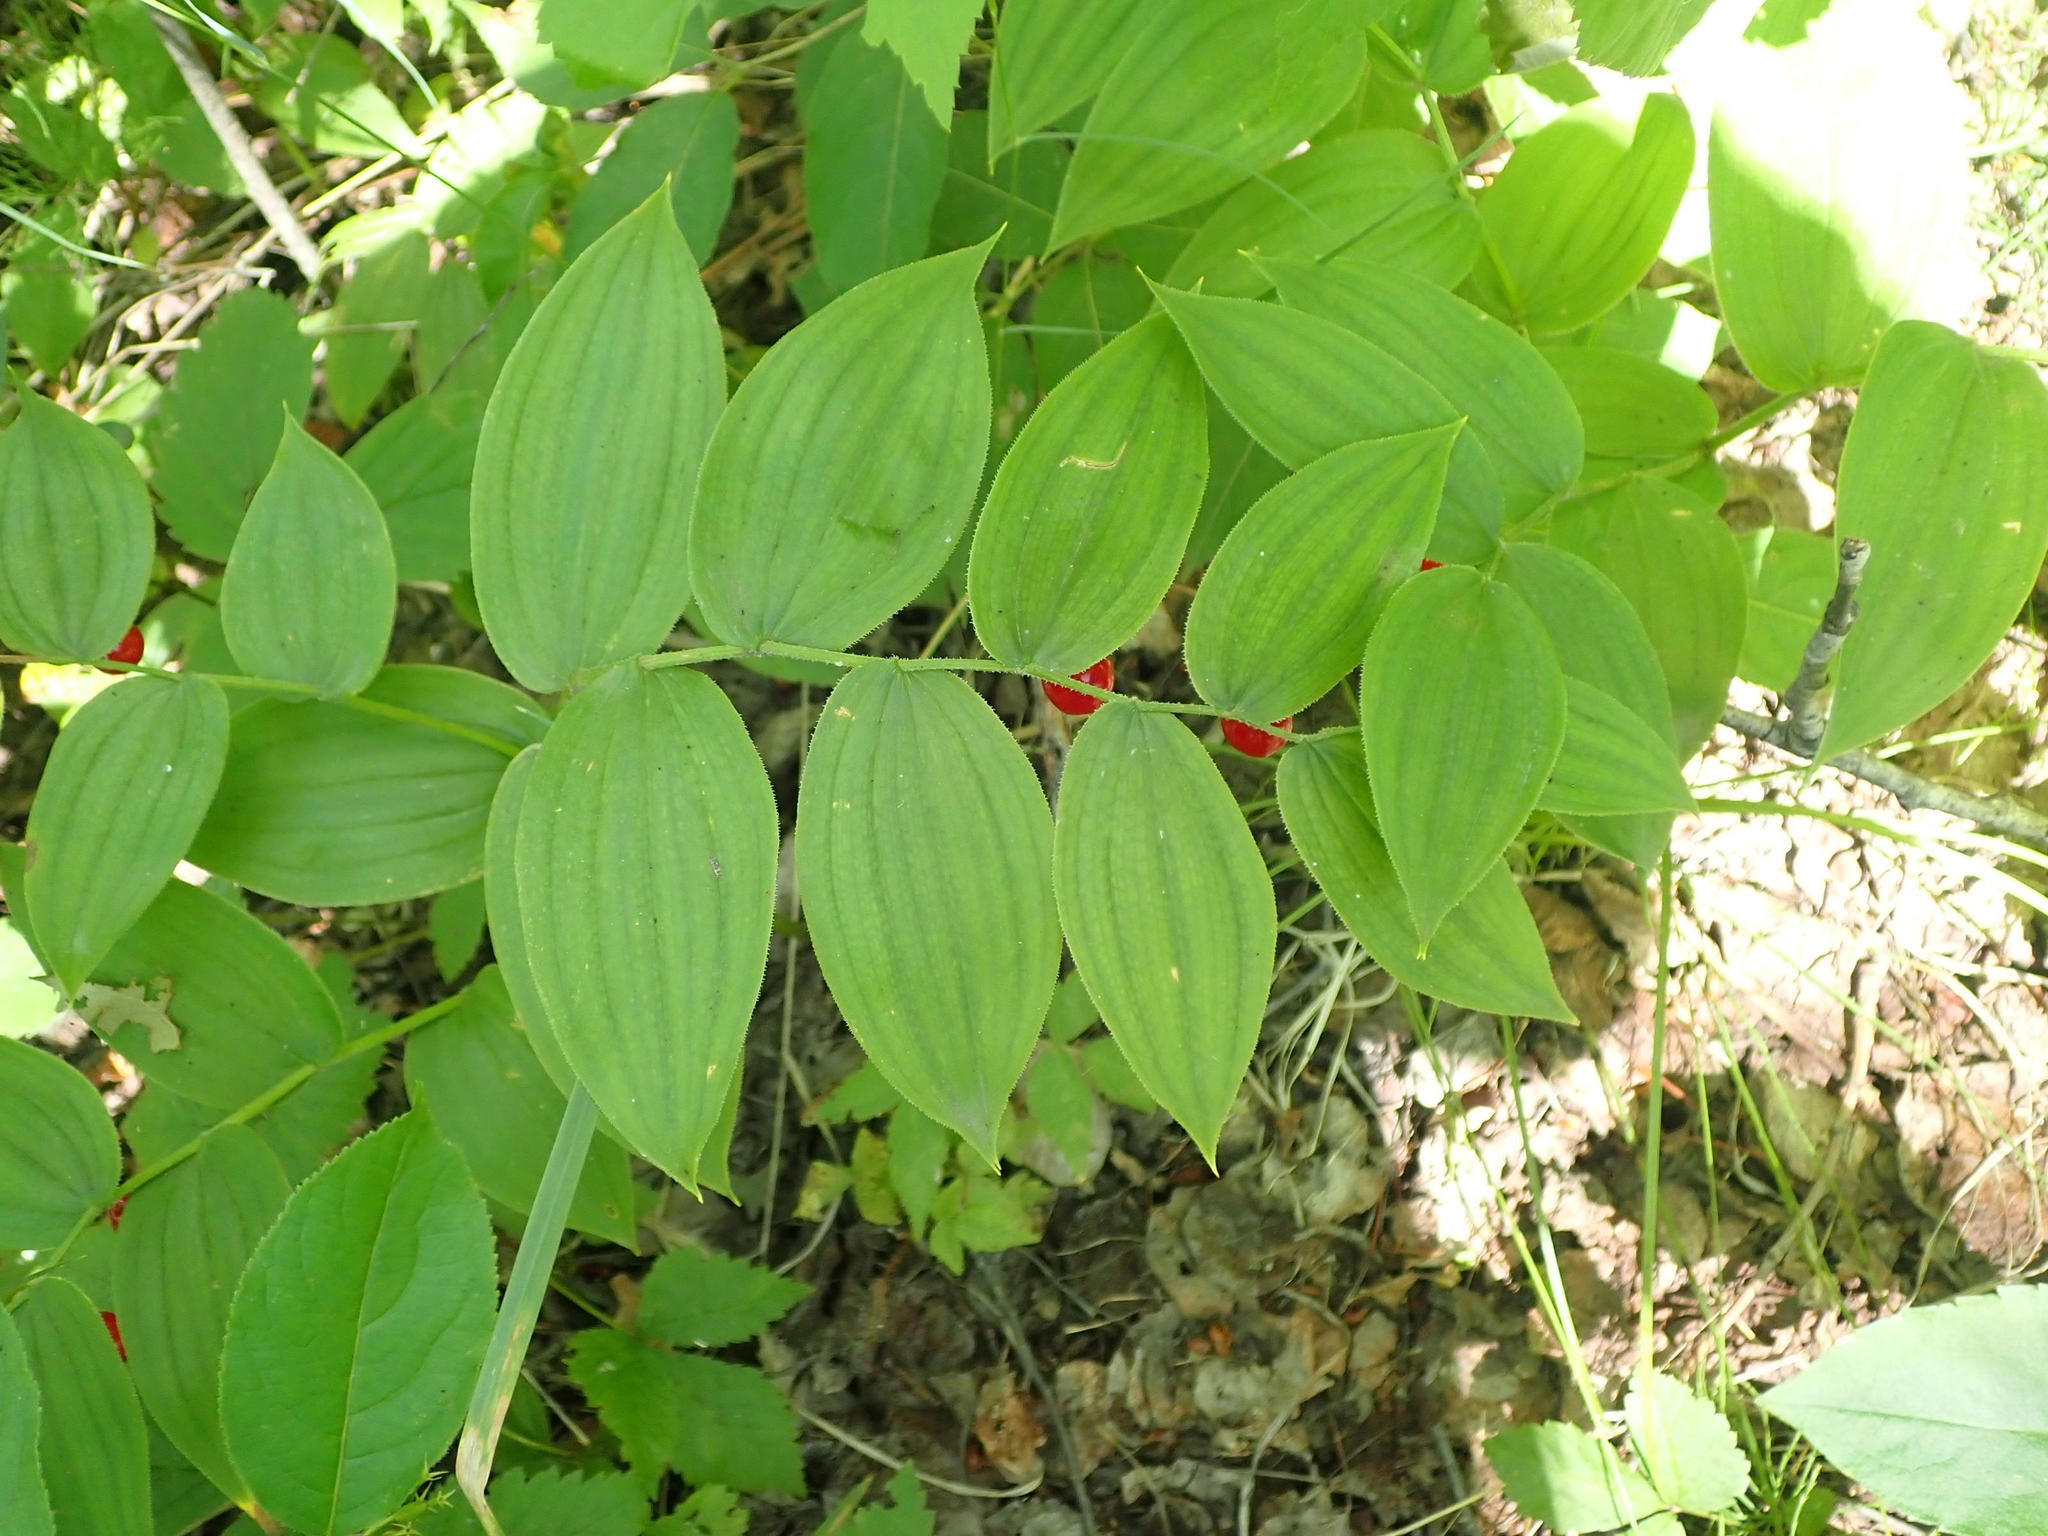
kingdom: Plantae
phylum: Tracheophyta
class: Liliopsida
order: Liliales
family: Liliaceae
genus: Streptopus
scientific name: Streptopus lanceolatus
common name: Rose mandarin
